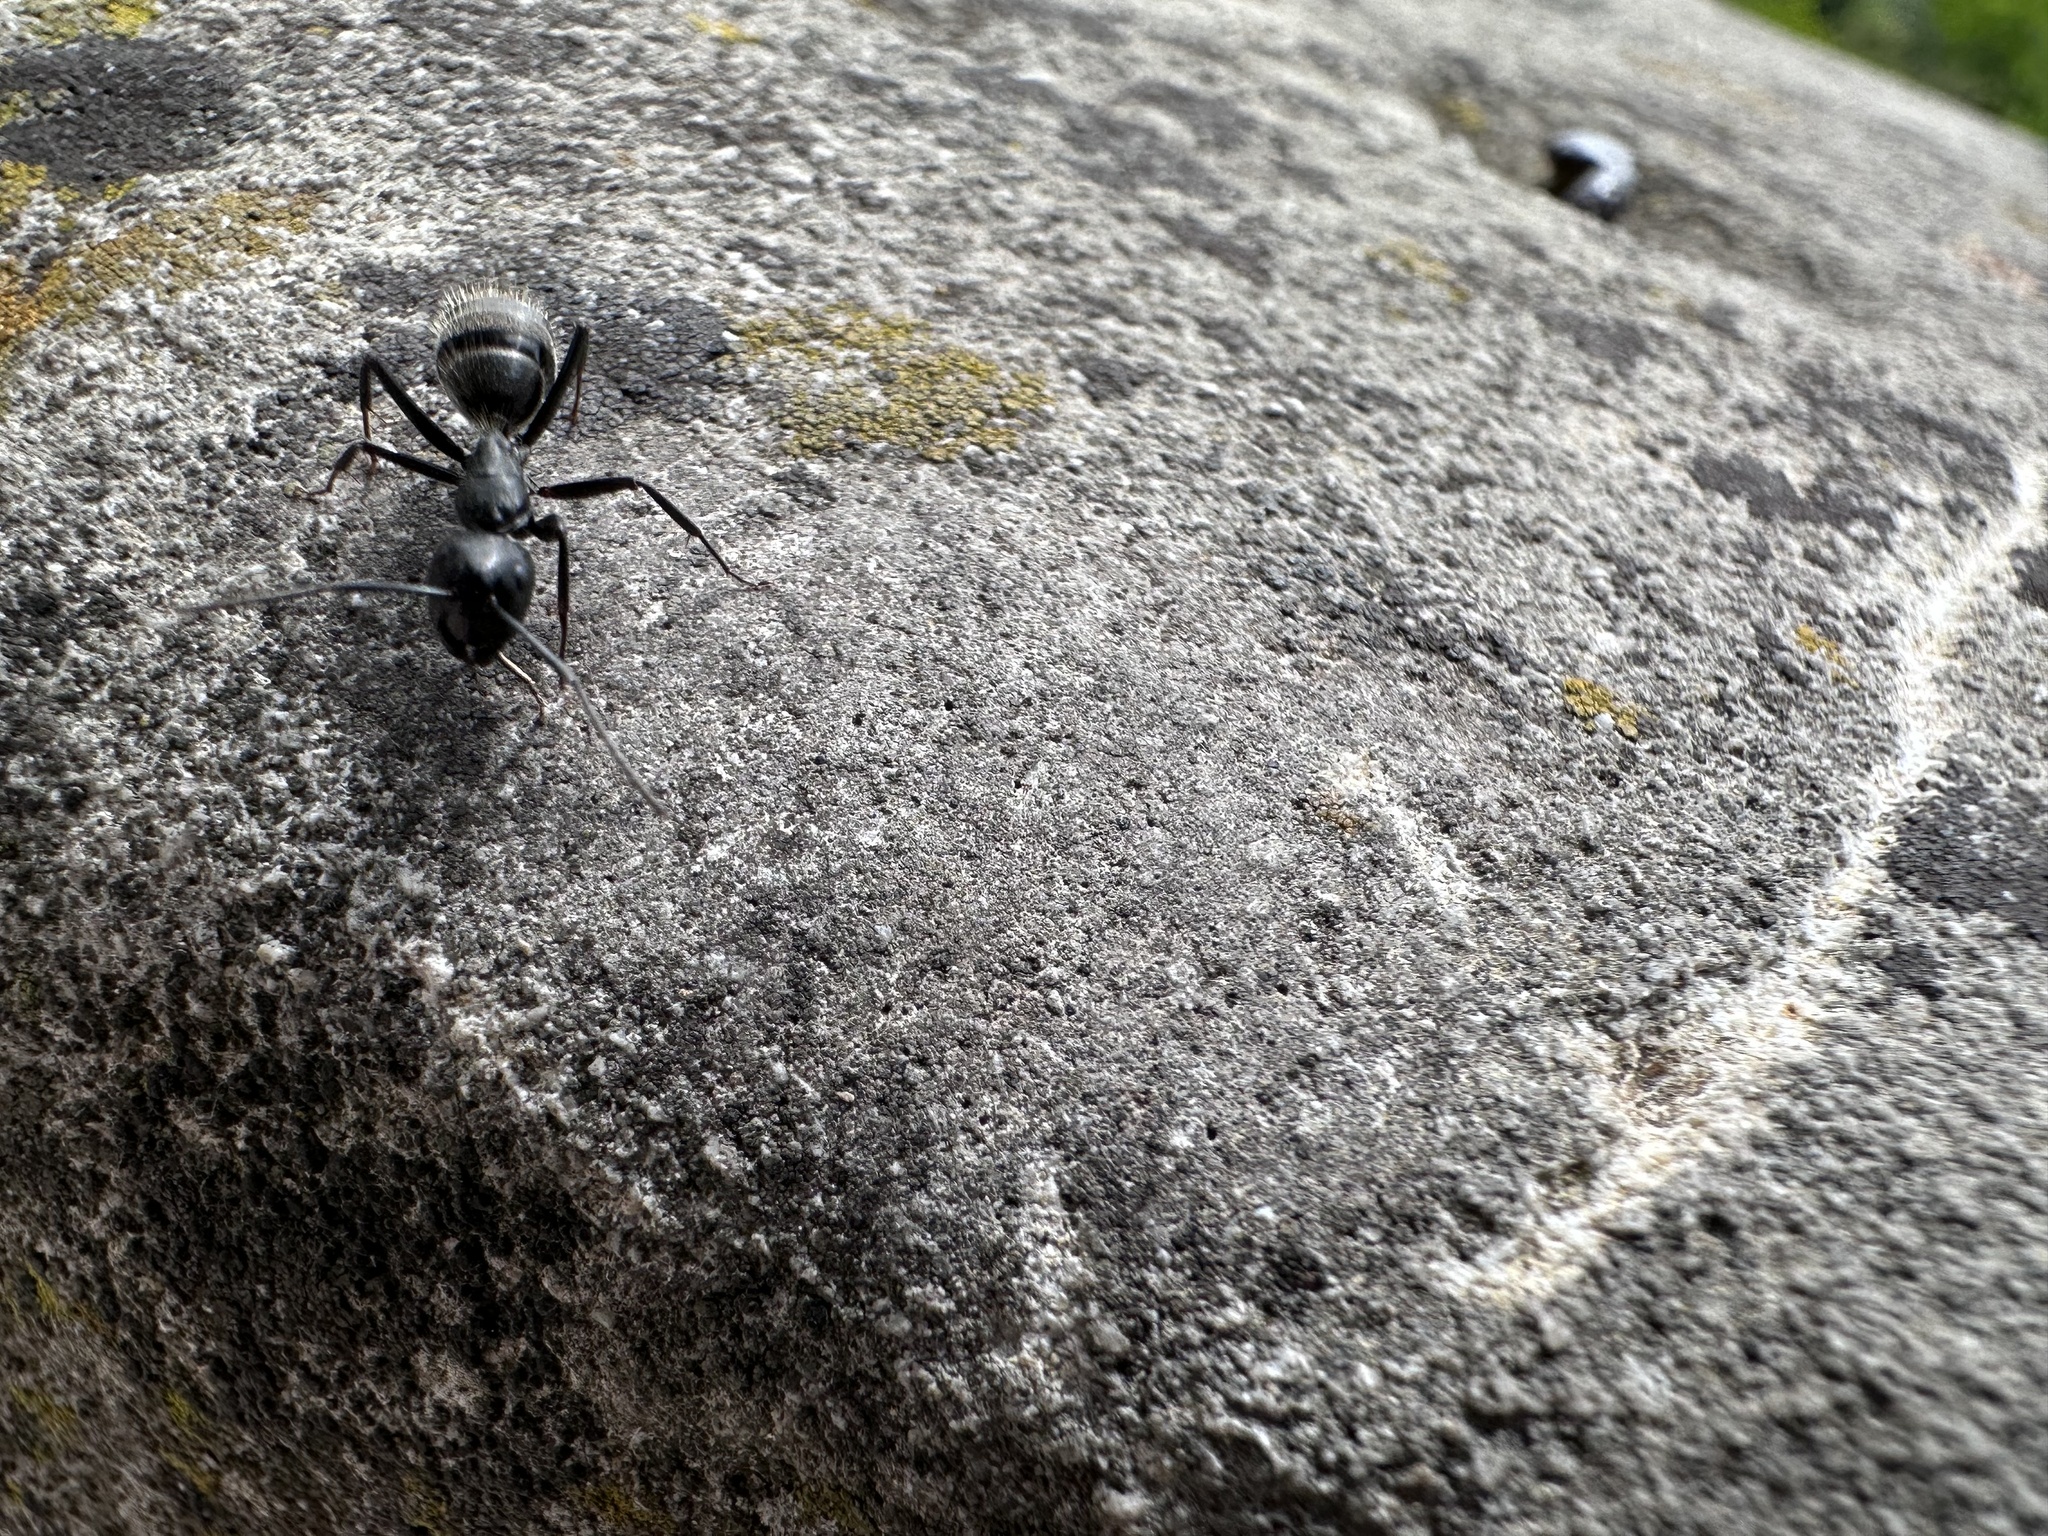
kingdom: Animalia
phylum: Arthropoda
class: Insecta
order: Hymenoptera
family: Formicidae
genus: Camponotus
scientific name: Camponotus vagus
